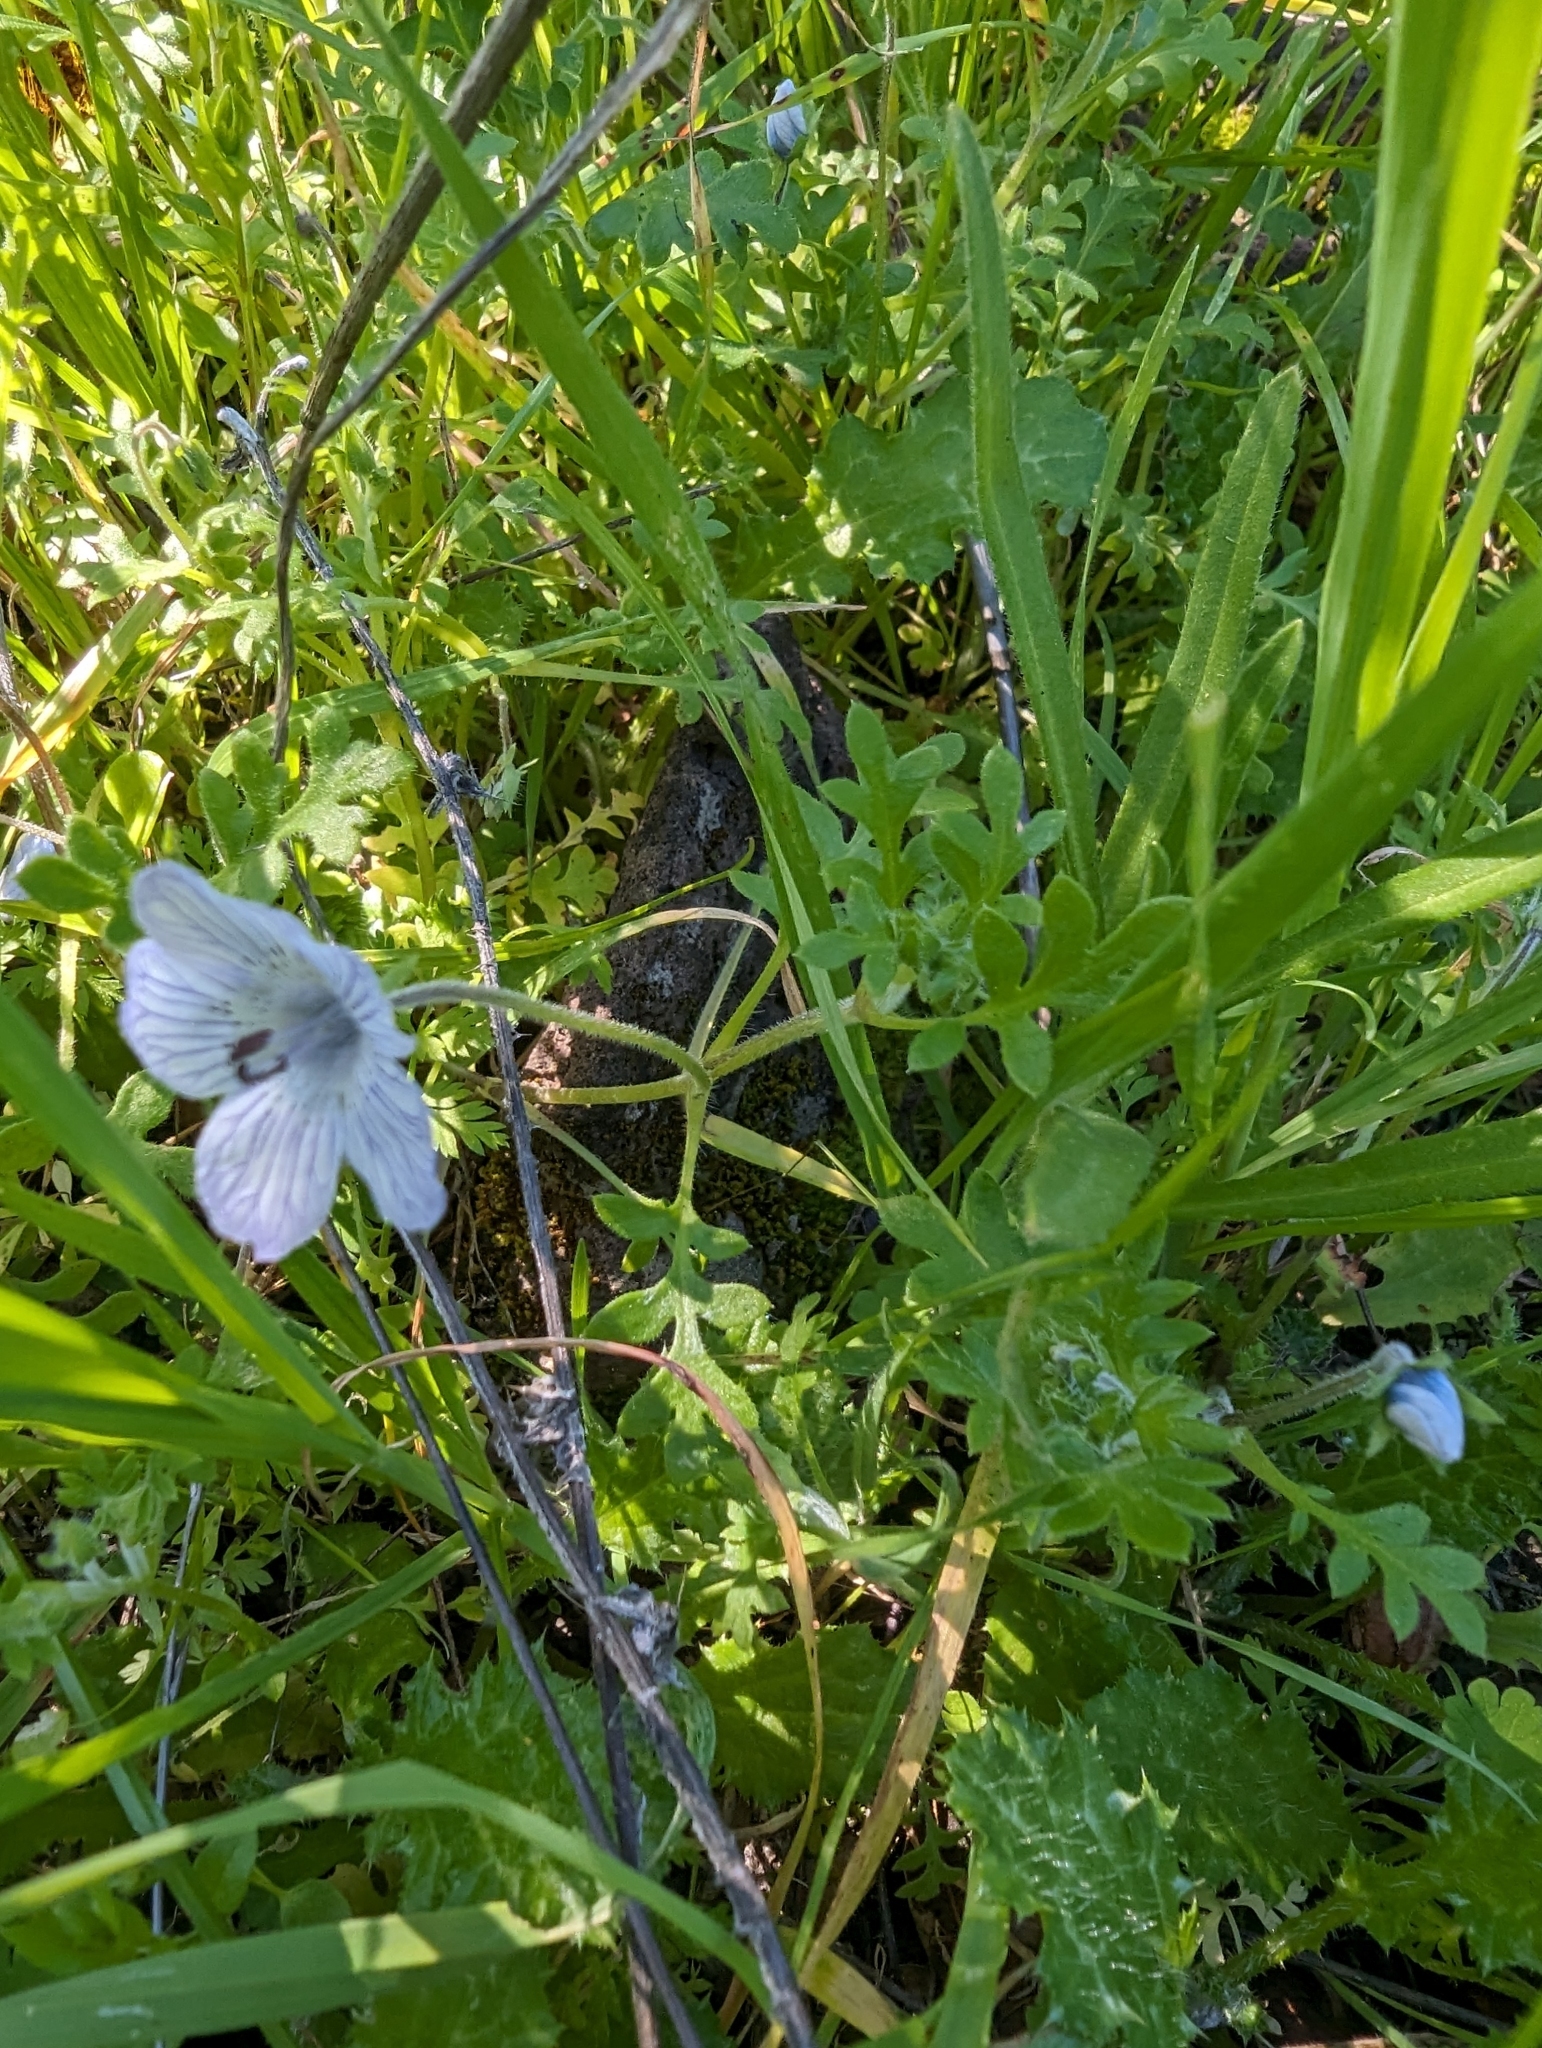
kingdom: Plantae
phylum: Tracheophyta
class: Magnoliopsida
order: Boraginales
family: Hydrophyllaceae
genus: Nemophila
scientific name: Nemophila menziesii
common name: Baby's-blue-eyes
